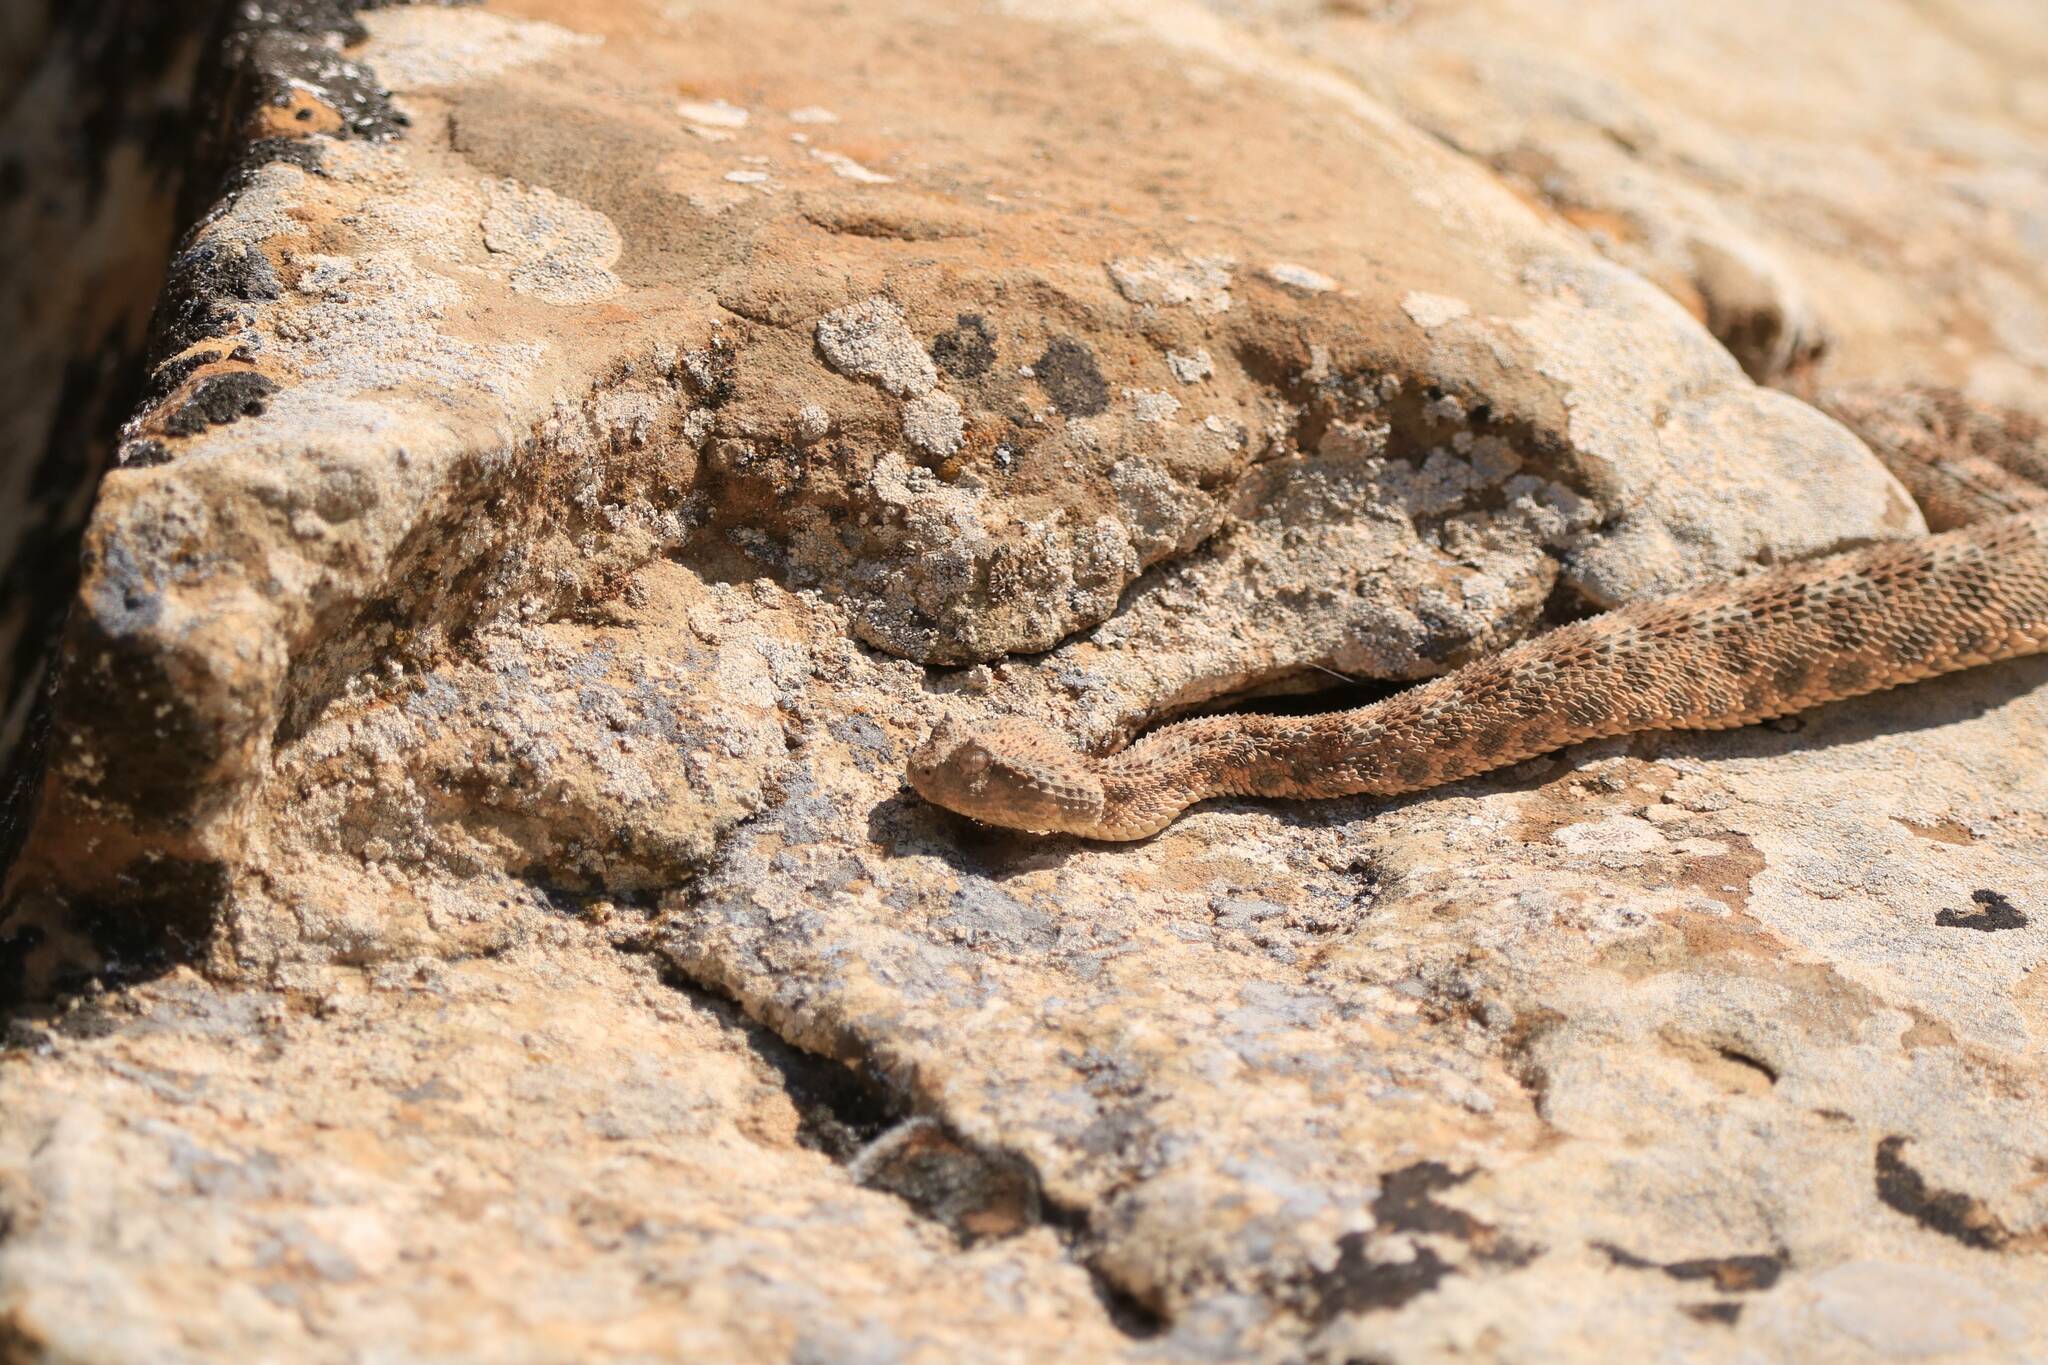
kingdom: Animalia
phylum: Chordata
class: Squamata
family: Viperidae
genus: Cerastes
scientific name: Cerastes cerastes
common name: Desert horned viper
